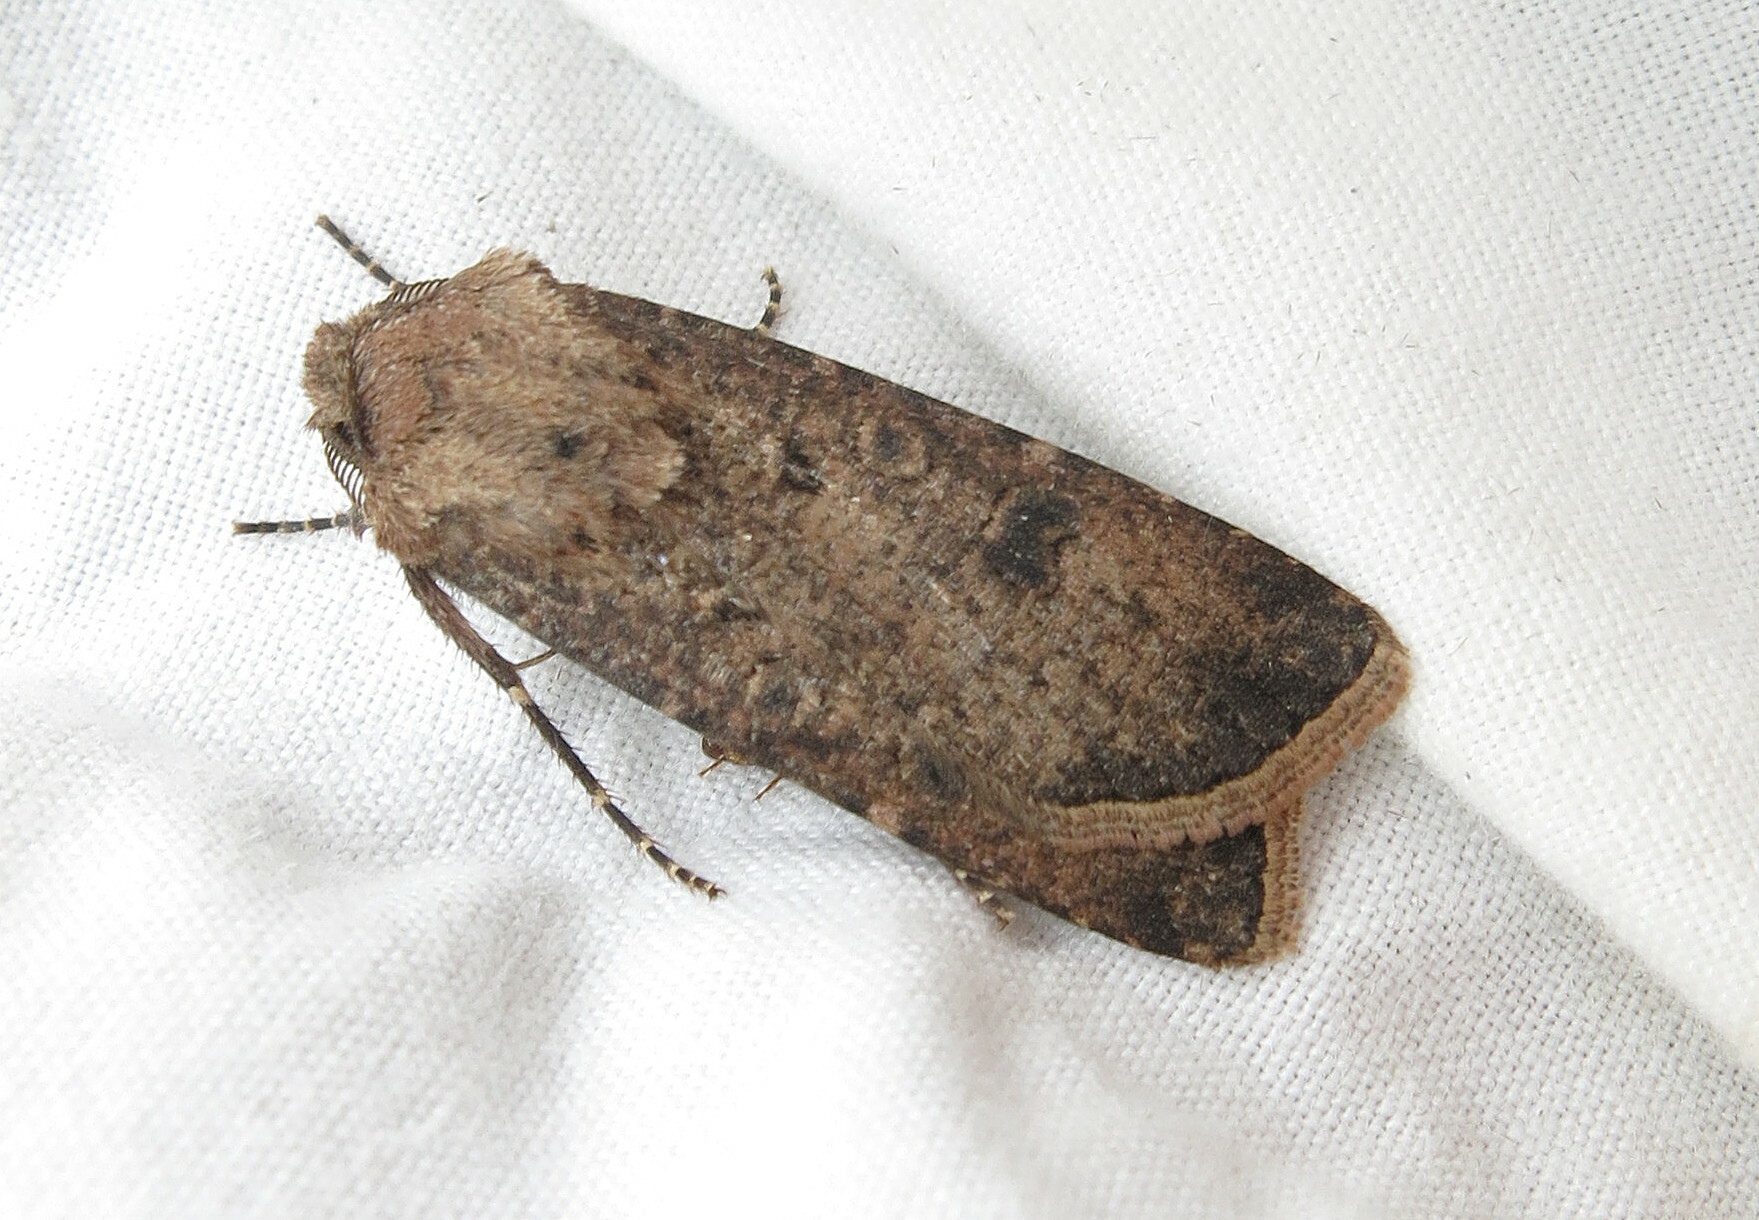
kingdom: Animalia
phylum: Arthropoda
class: Insecta
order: Lepidoptera
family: Noctuidae
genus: Agrotis
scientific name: Agrotis segetum
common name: Turnip moth
